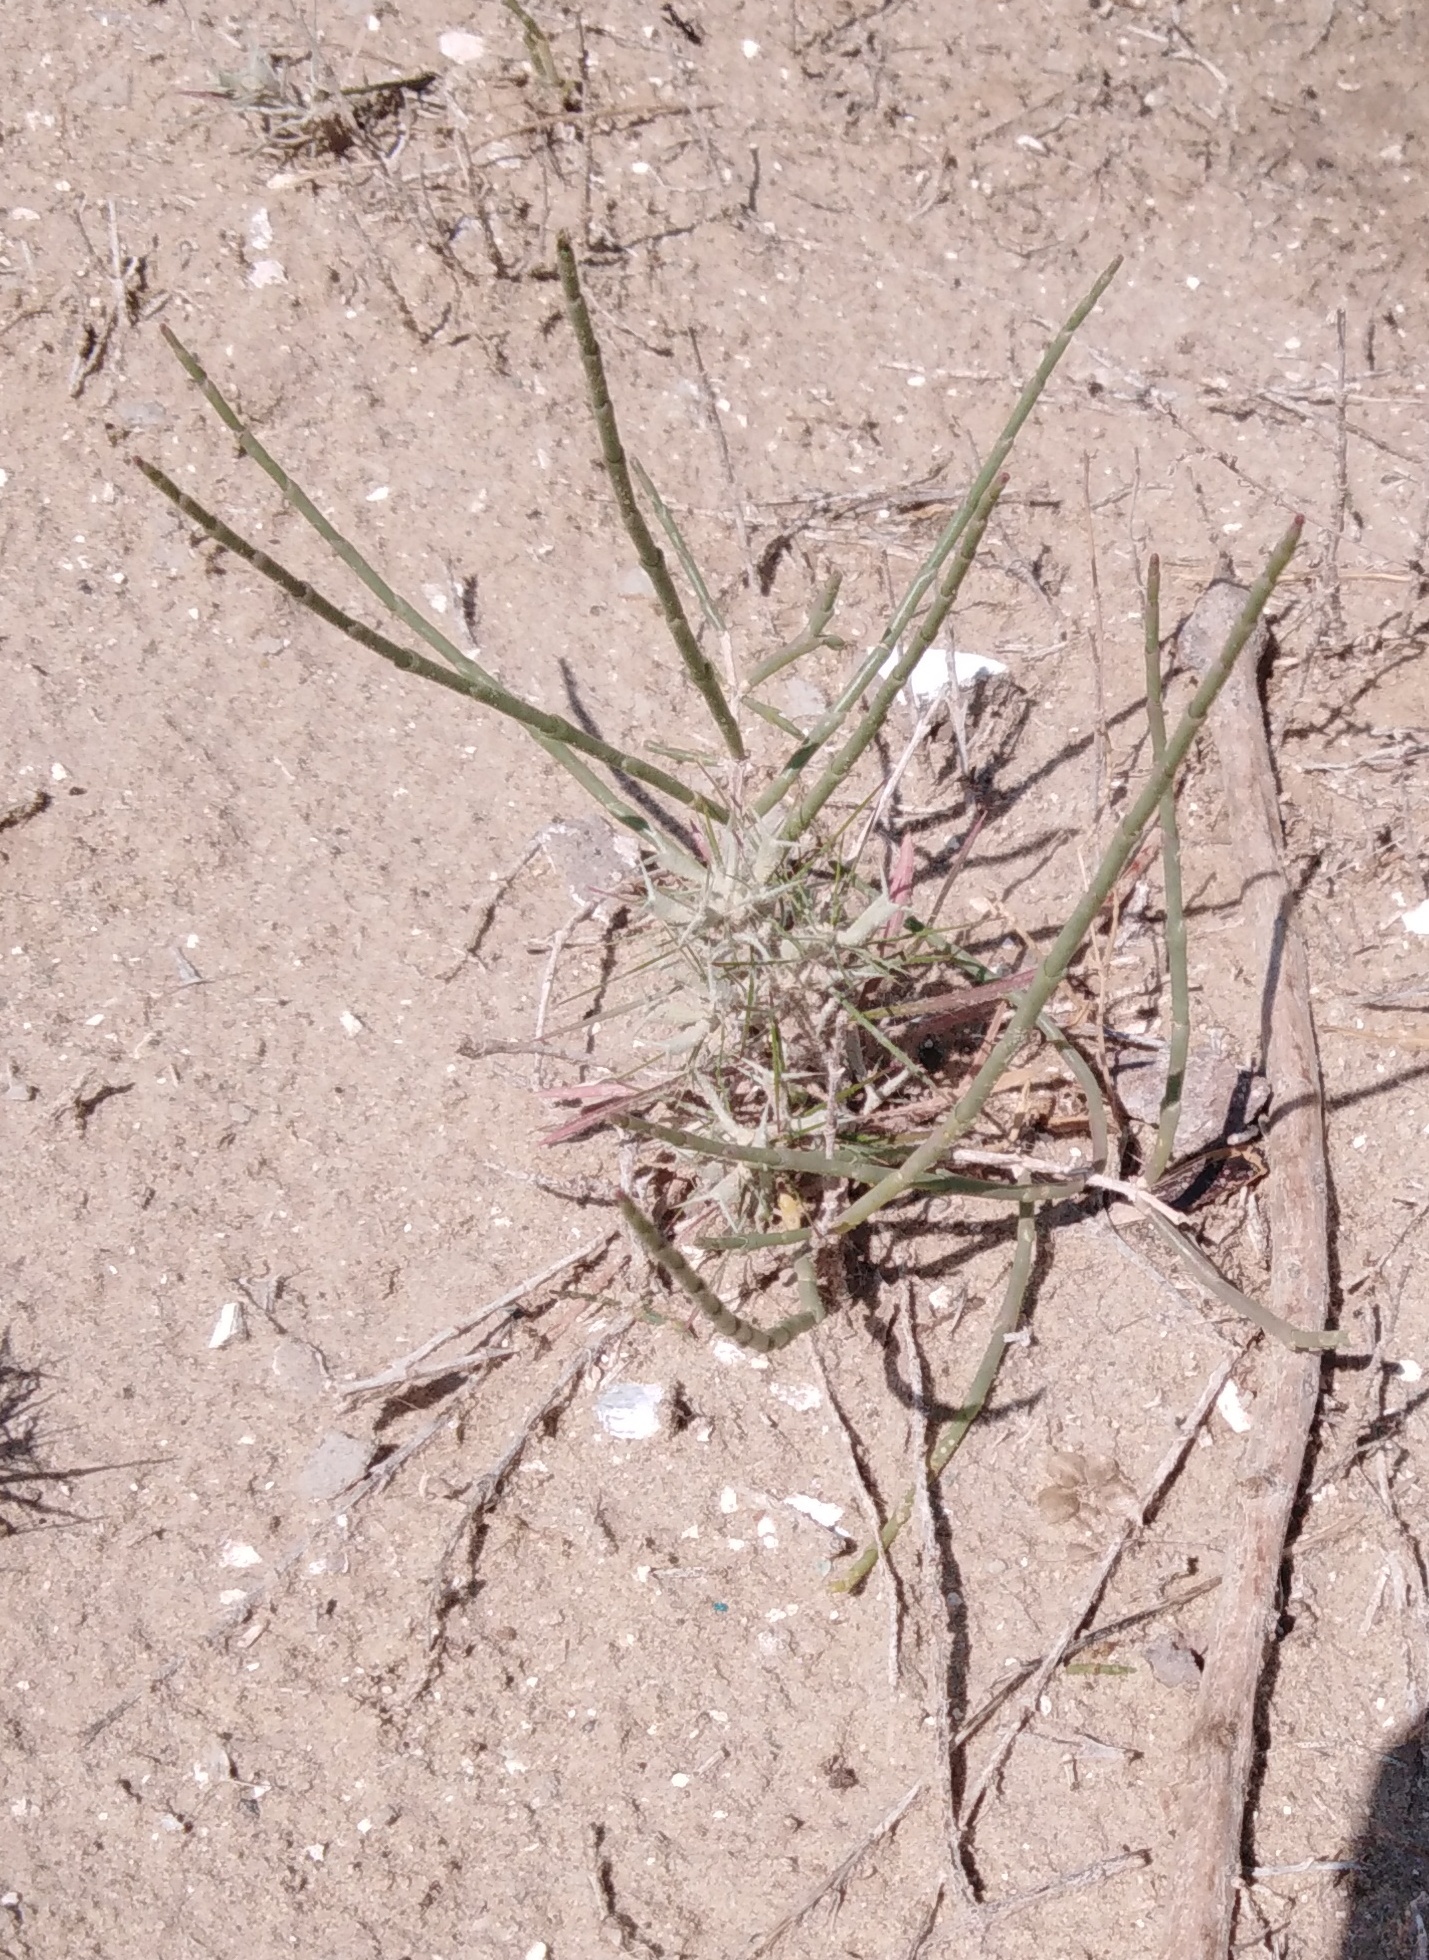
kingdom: Plantae
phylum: Tracheophyta
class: Magnoliopsida
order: Caryophyllales
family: Amaranthaceae
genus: Ceratocarpus
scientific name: Ceratocarpus arenarius
